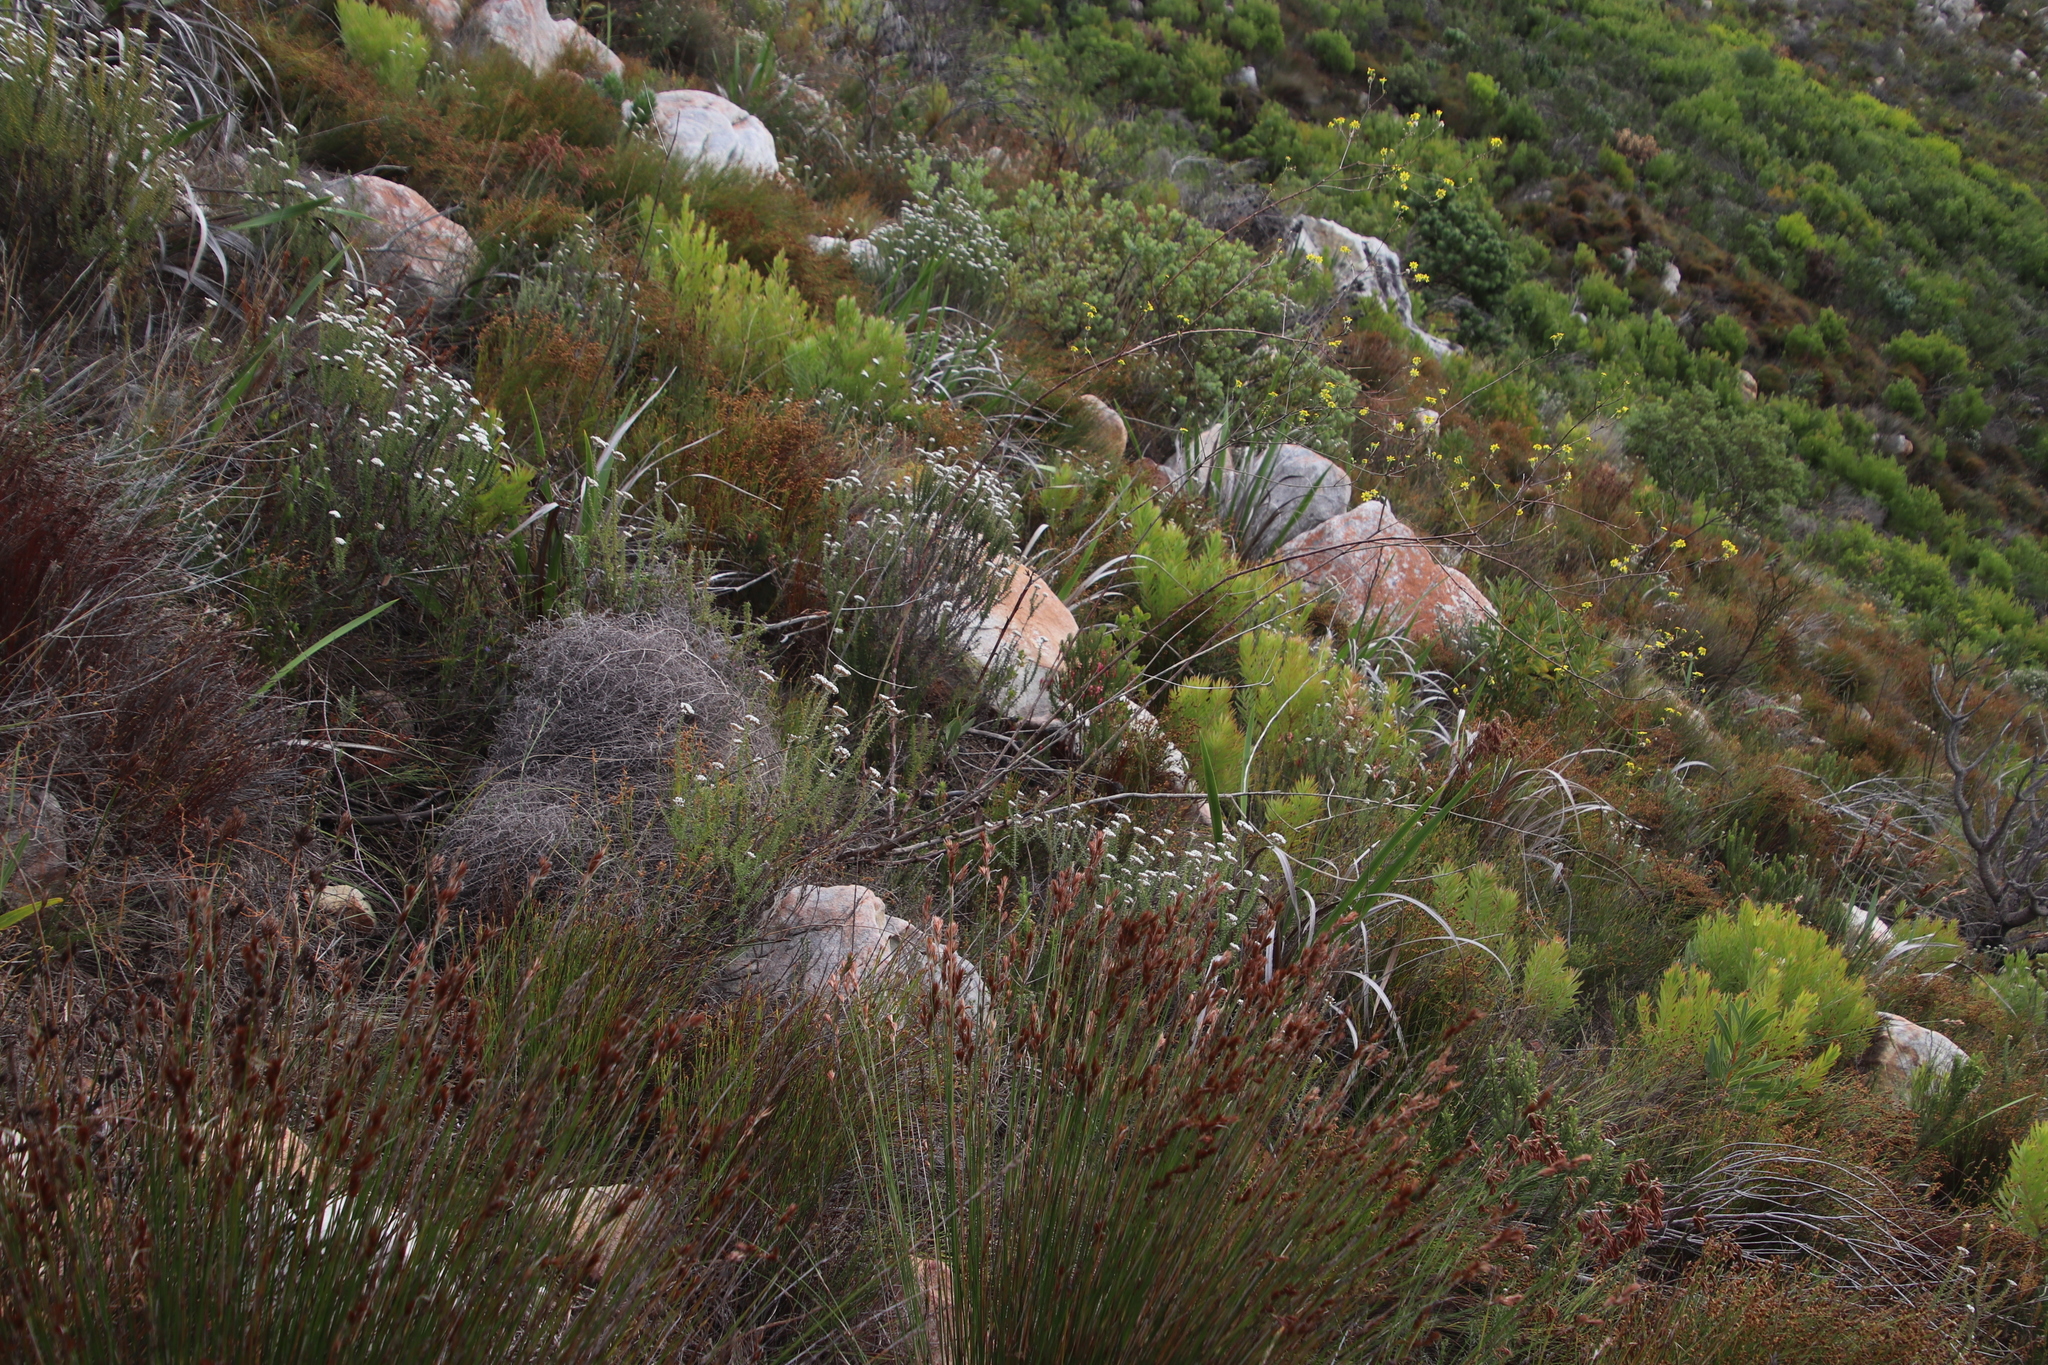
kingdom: Plantae
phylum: Tracheophyta
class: Magnoliopsida
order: Asterales
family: Asteraceae
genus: Othonna
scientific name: Othonna quinquedentata
